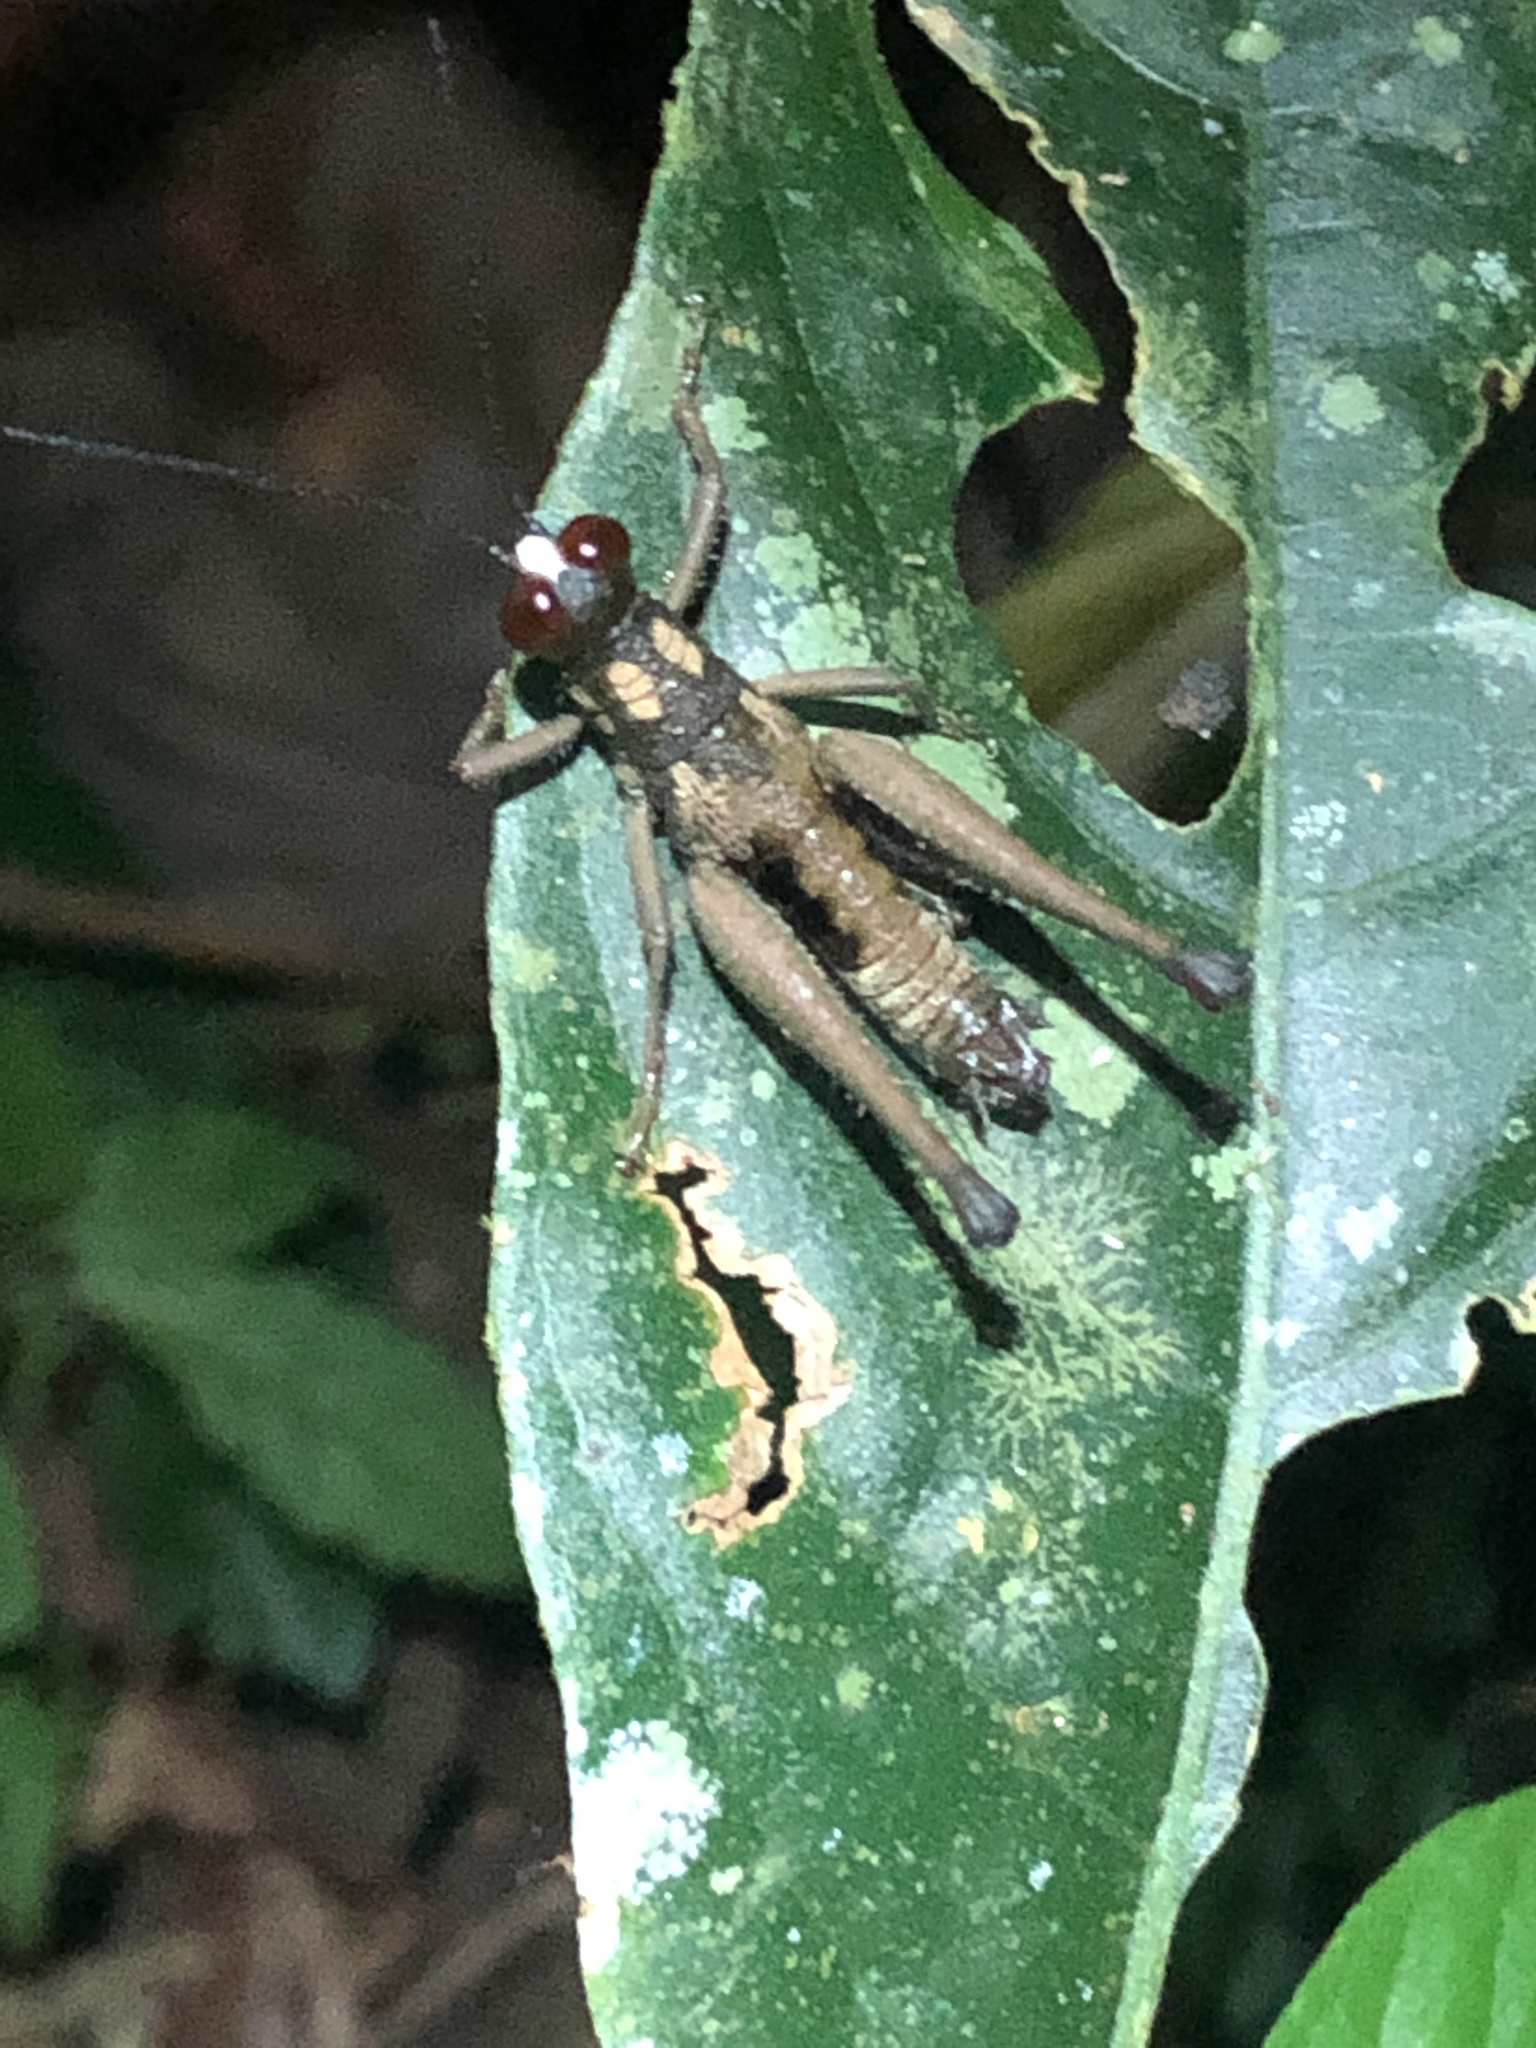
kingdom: Animalia
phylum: Arthropoda
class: Insecta
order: Orthoptera
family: Acrididae
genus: Stenelutracris
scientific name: Stenelutracris lignicola
